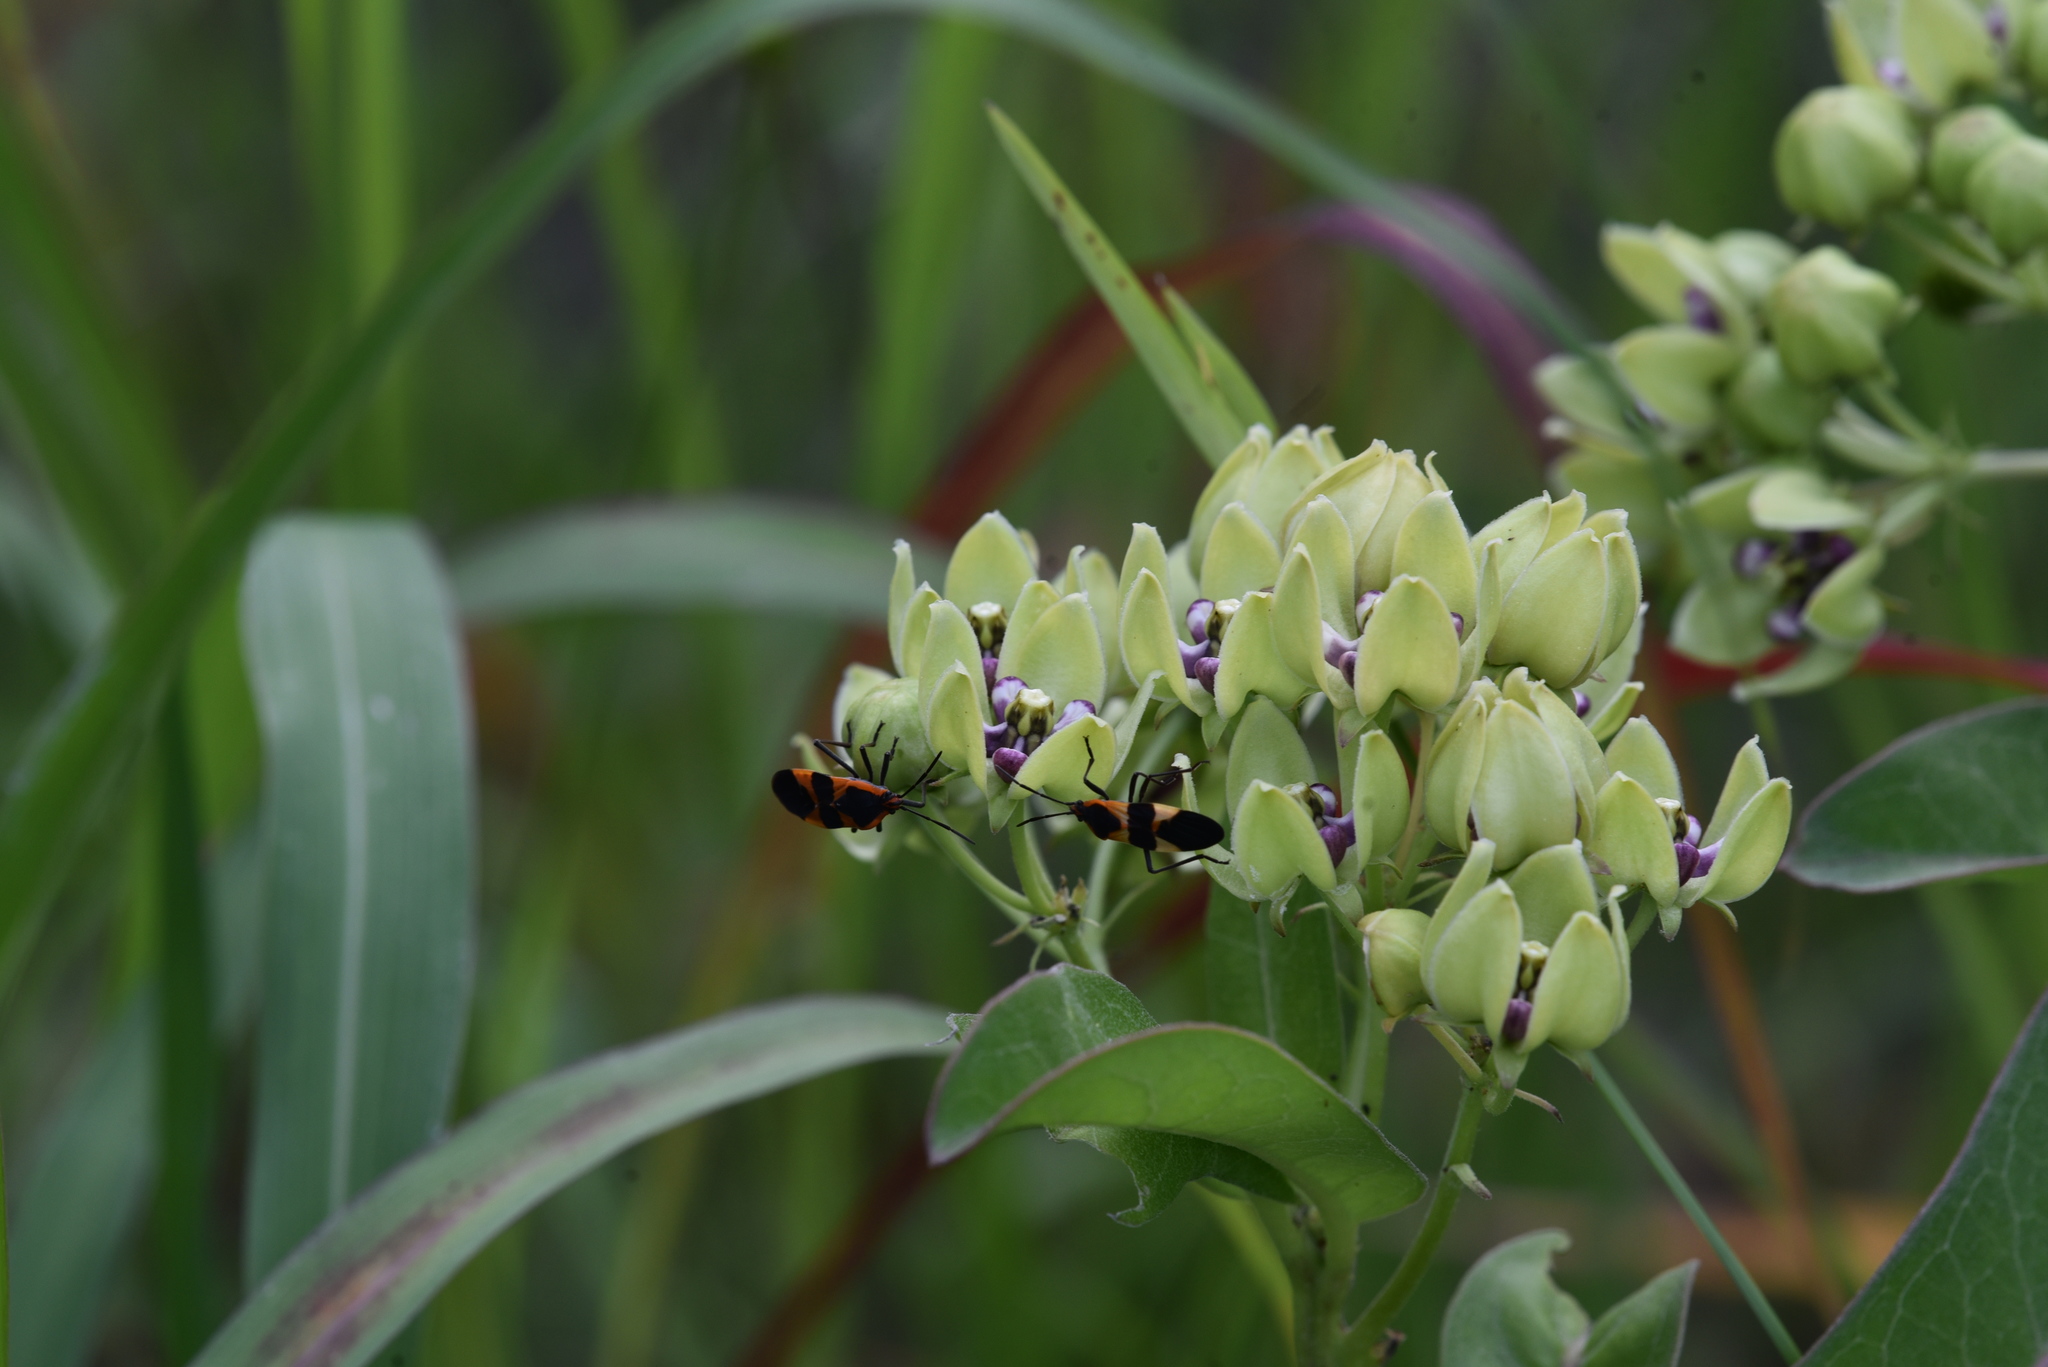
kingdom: Animalia
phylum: Arthropoda
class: Insecta
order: Hemiptera
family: Lygaeidae
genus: Oncopeltus
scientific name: Oncopeltus fasciatus
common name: Large milkweed bug
